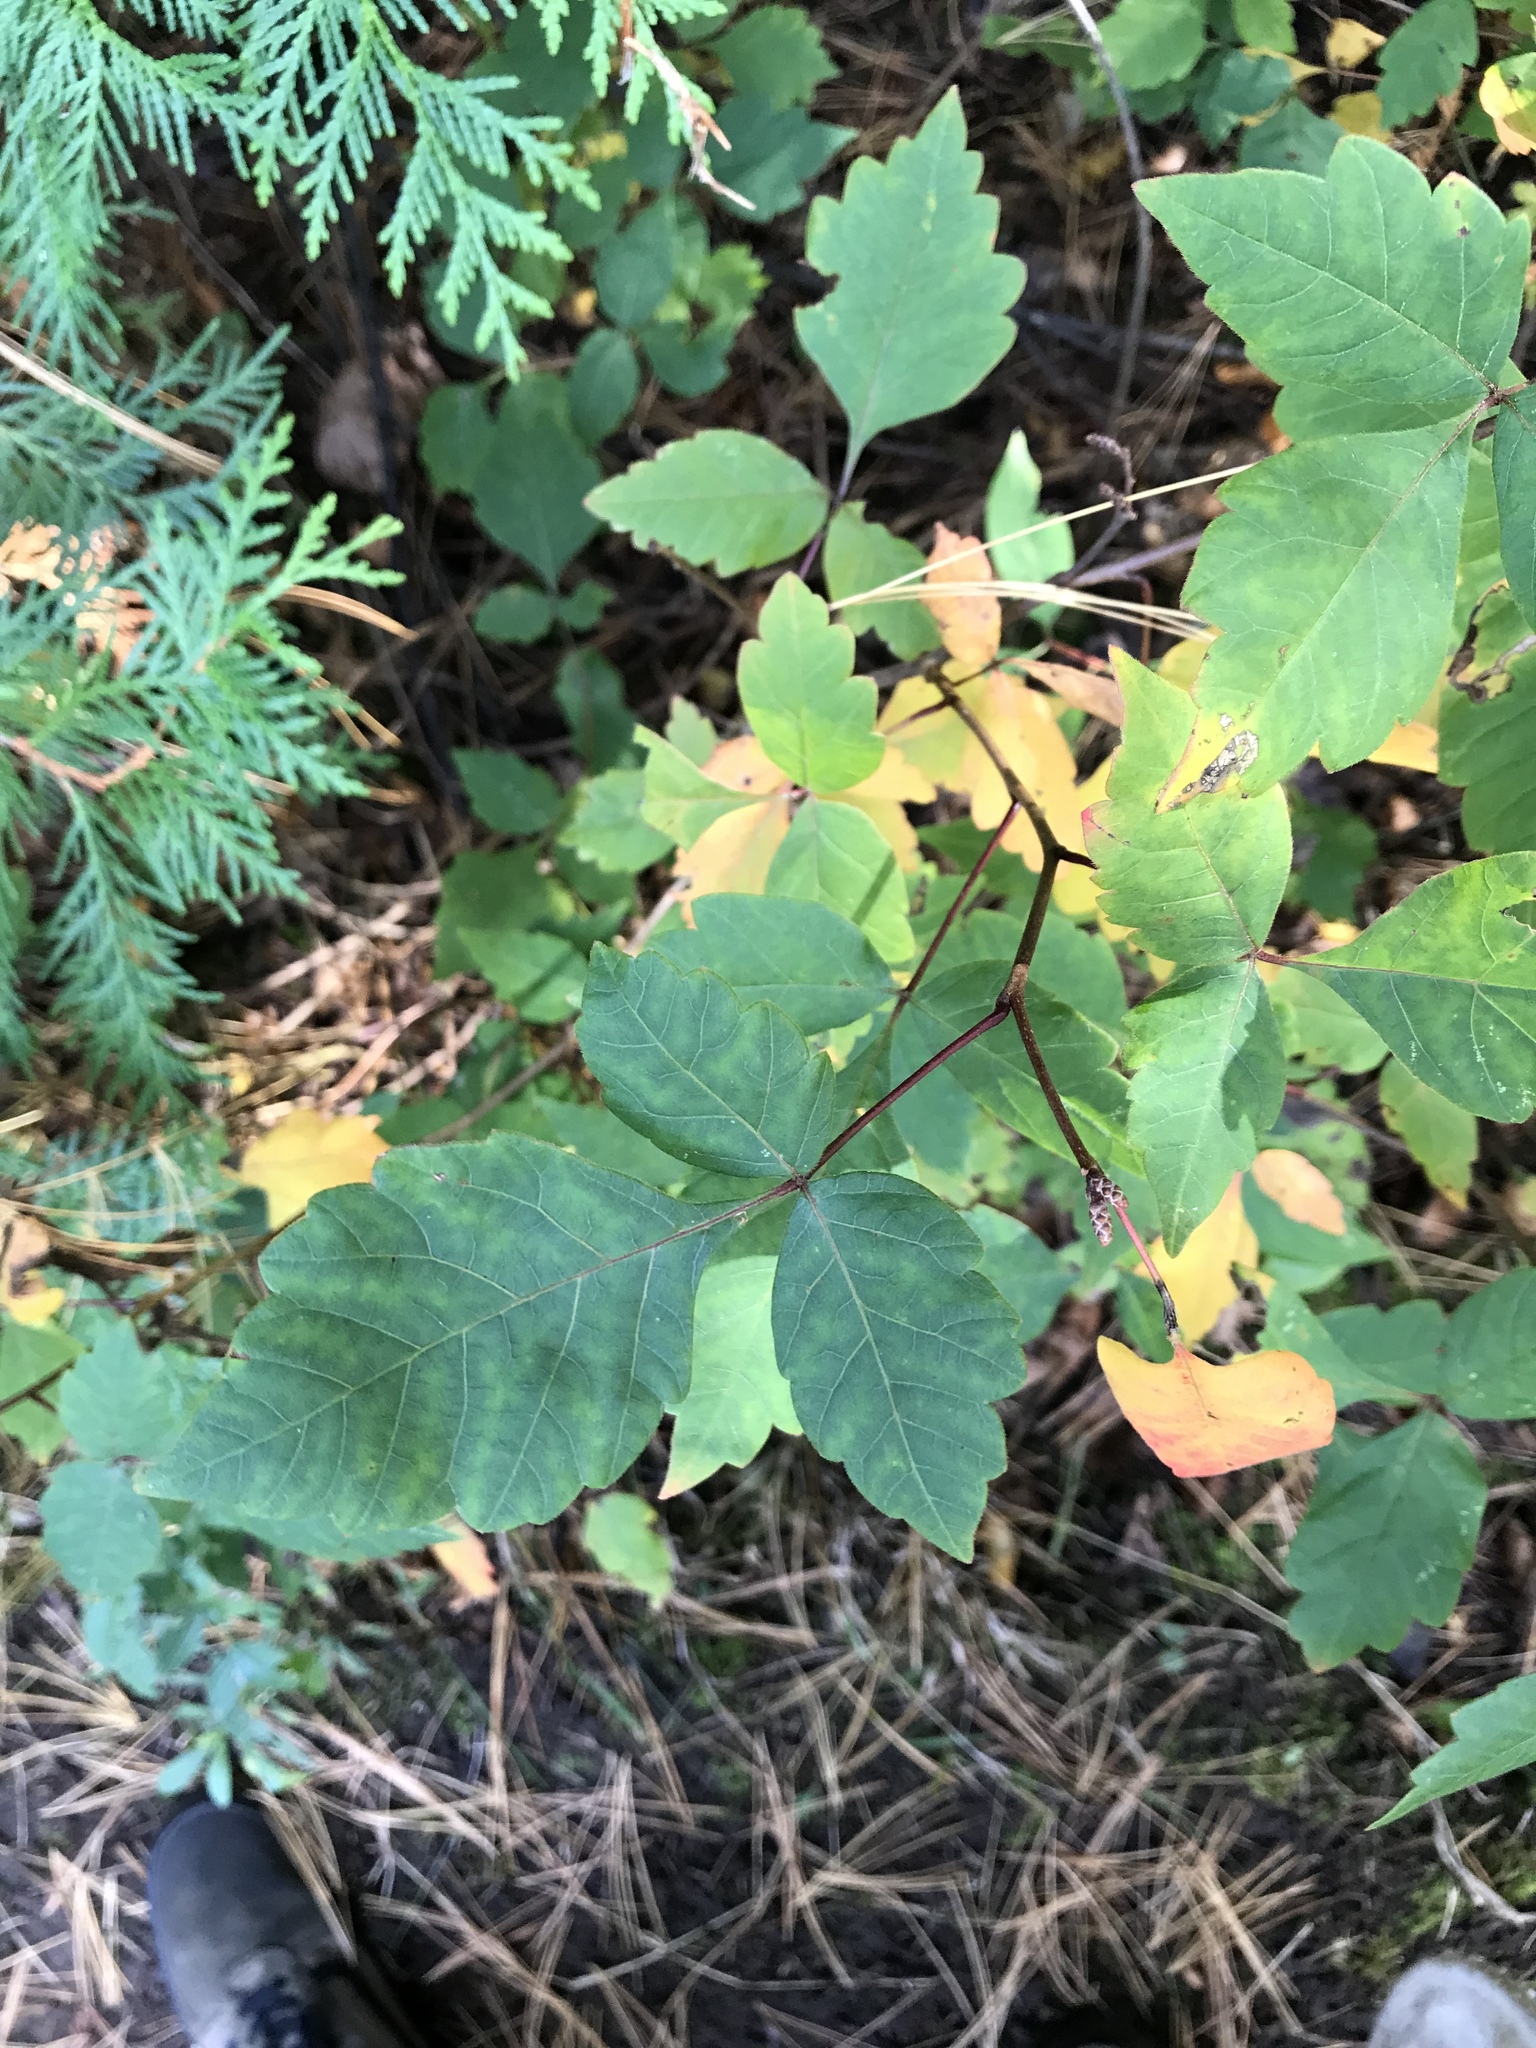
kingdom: Plantae
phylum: Tracheophyta
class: Magnoliopsida
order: Sapindales
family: Anacardiaceae
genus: Rhus
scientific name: Rhus aromatica
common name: Aromatic sumac
